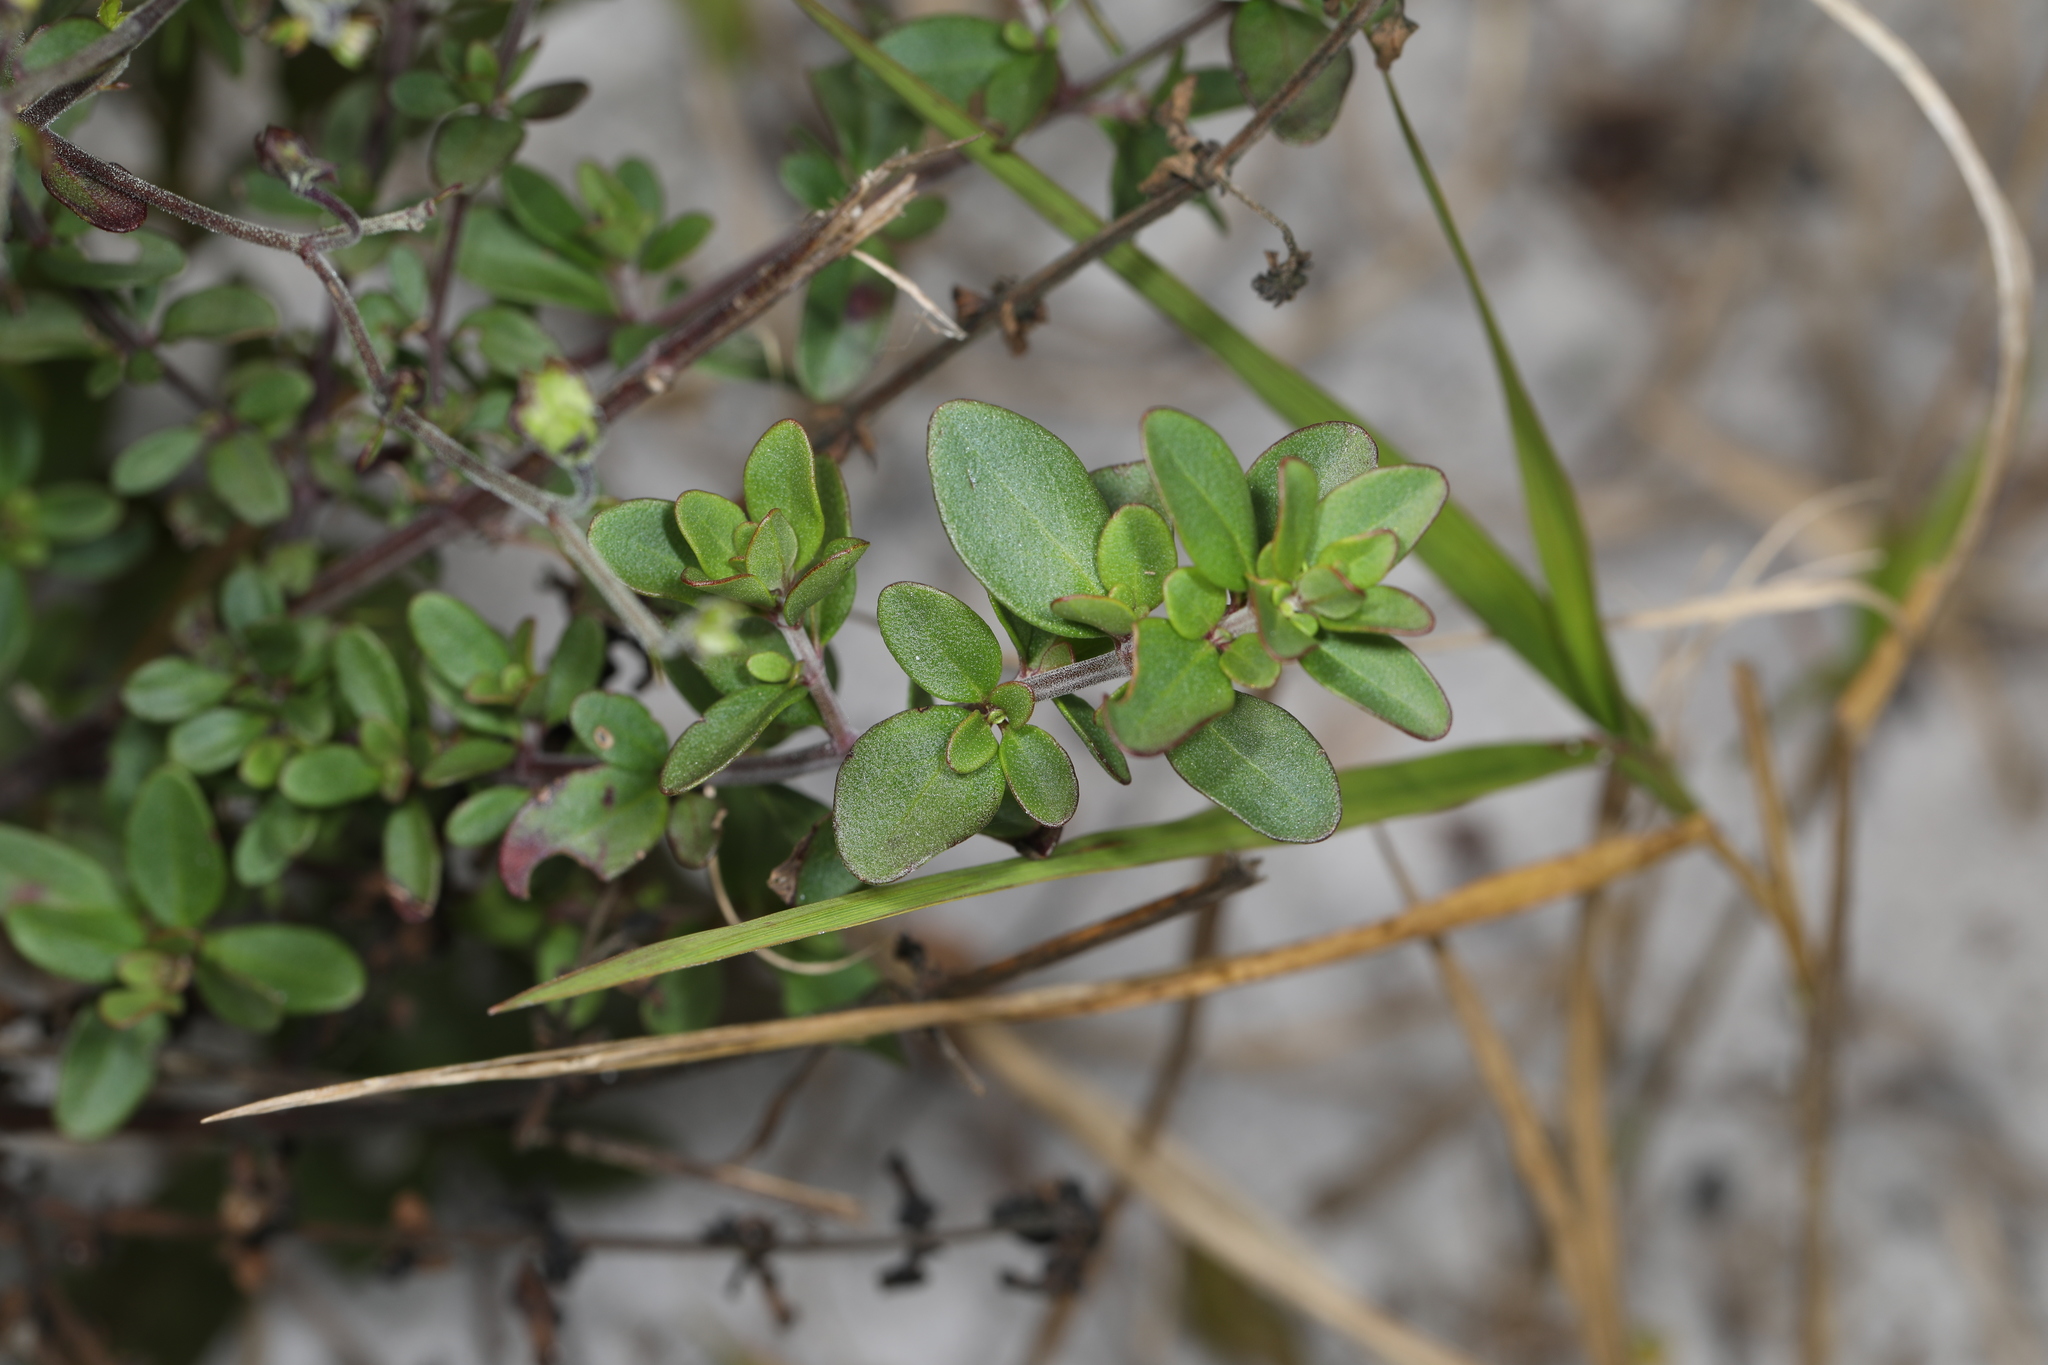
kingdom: Plantae
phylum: Tracheophyta
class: Magnoliopsida
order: Lamiales
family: Lamiaceae
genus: Trichostema
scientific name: Trichostema bridgesii-orzellii
